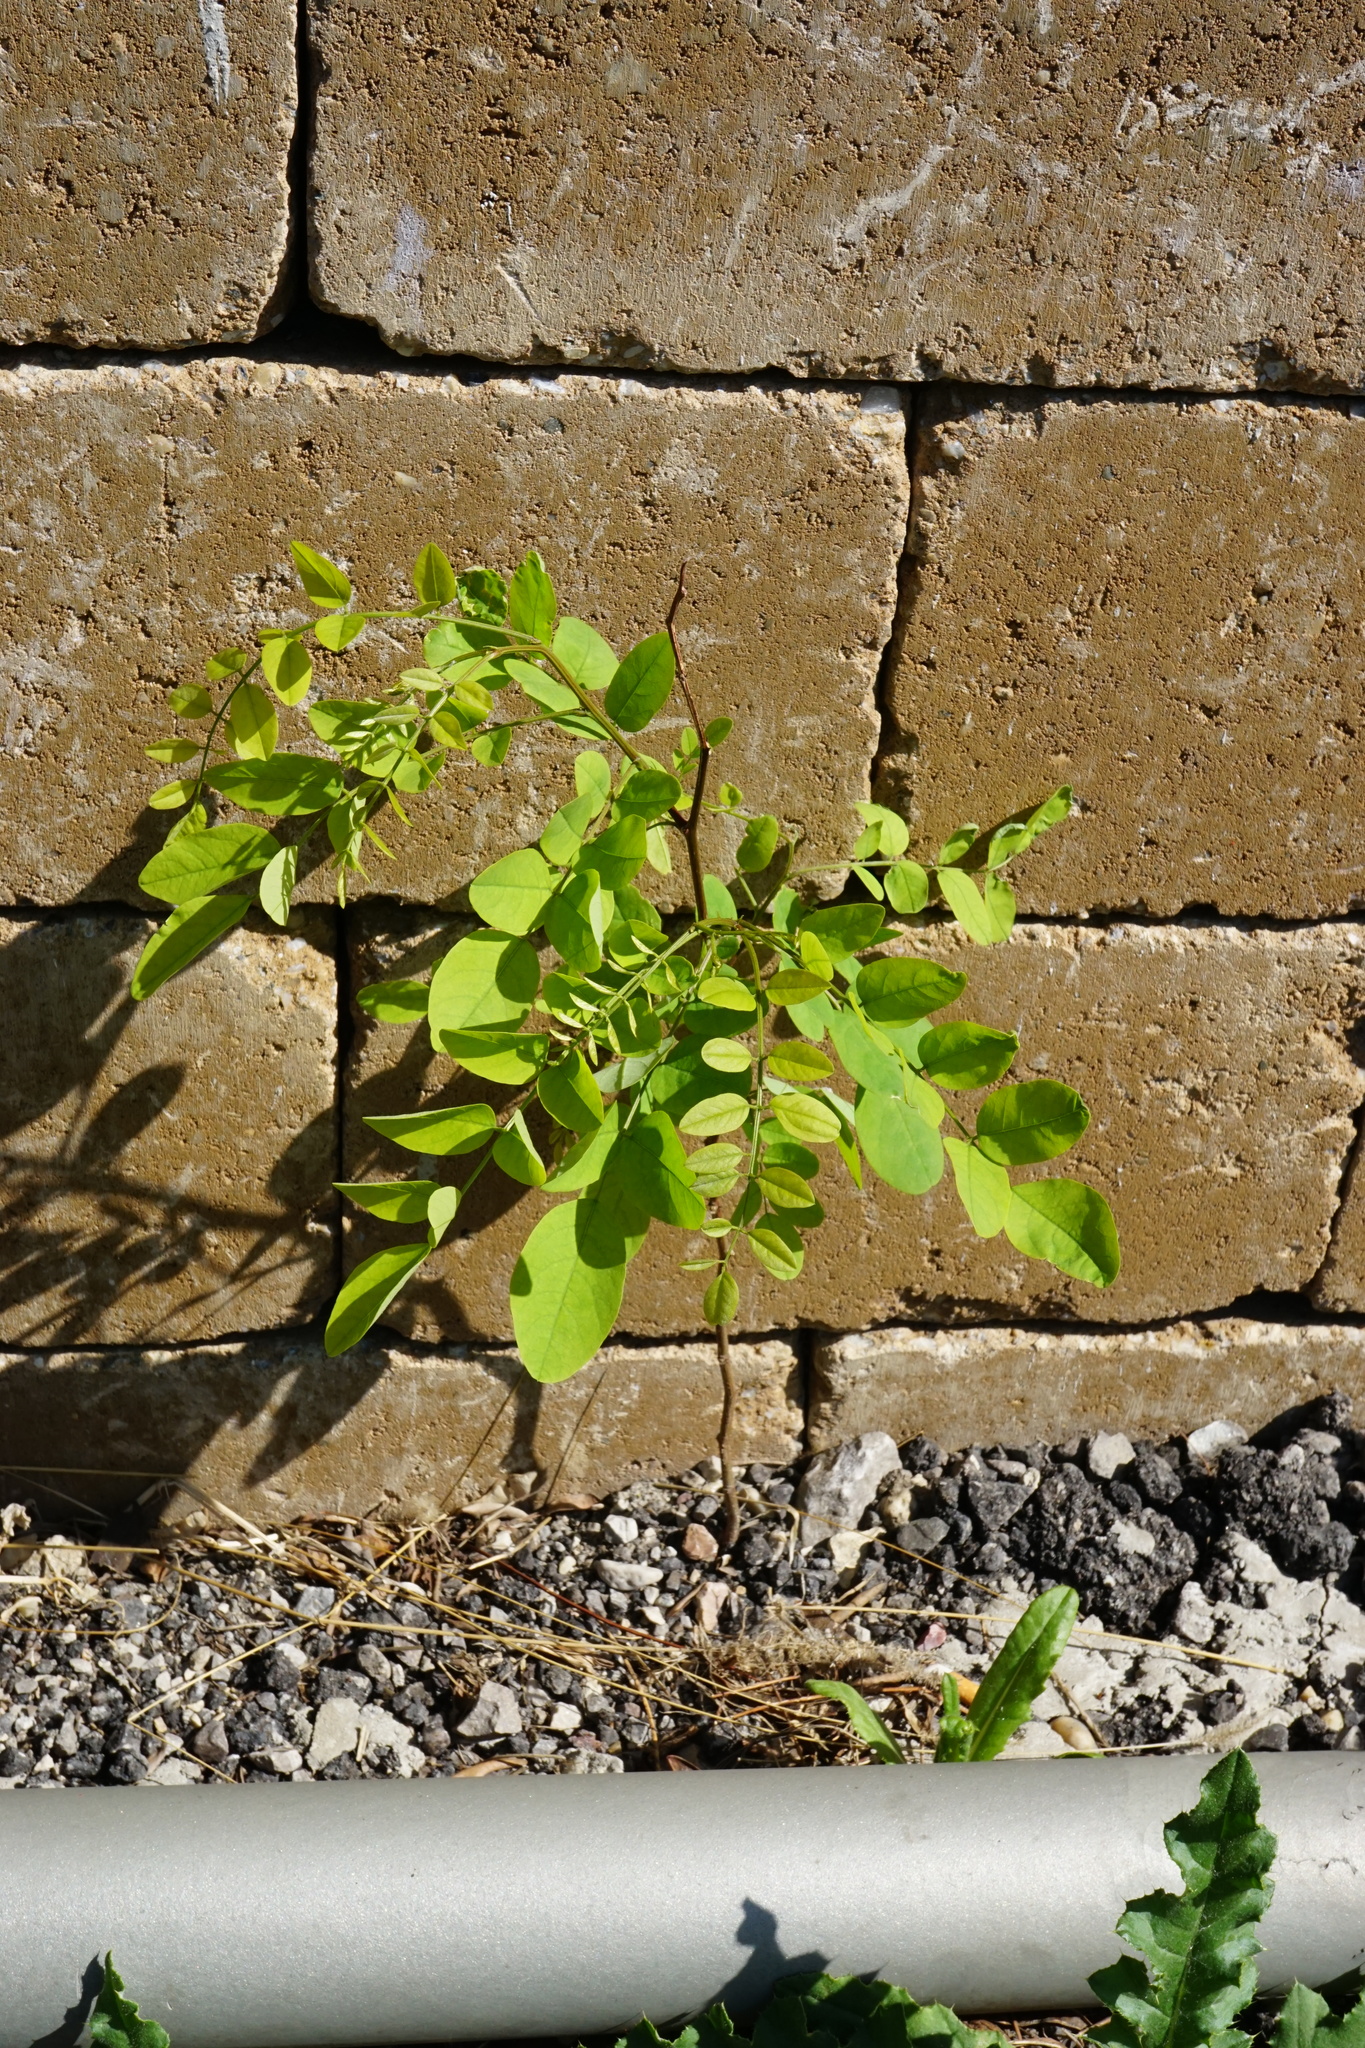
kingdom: Plantae
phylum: Tracheophyta
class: Magnoliopsida
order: Fabales
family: Fabaceae
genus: Robinia
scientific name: Robinia pseudoacacia
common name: Black locust
